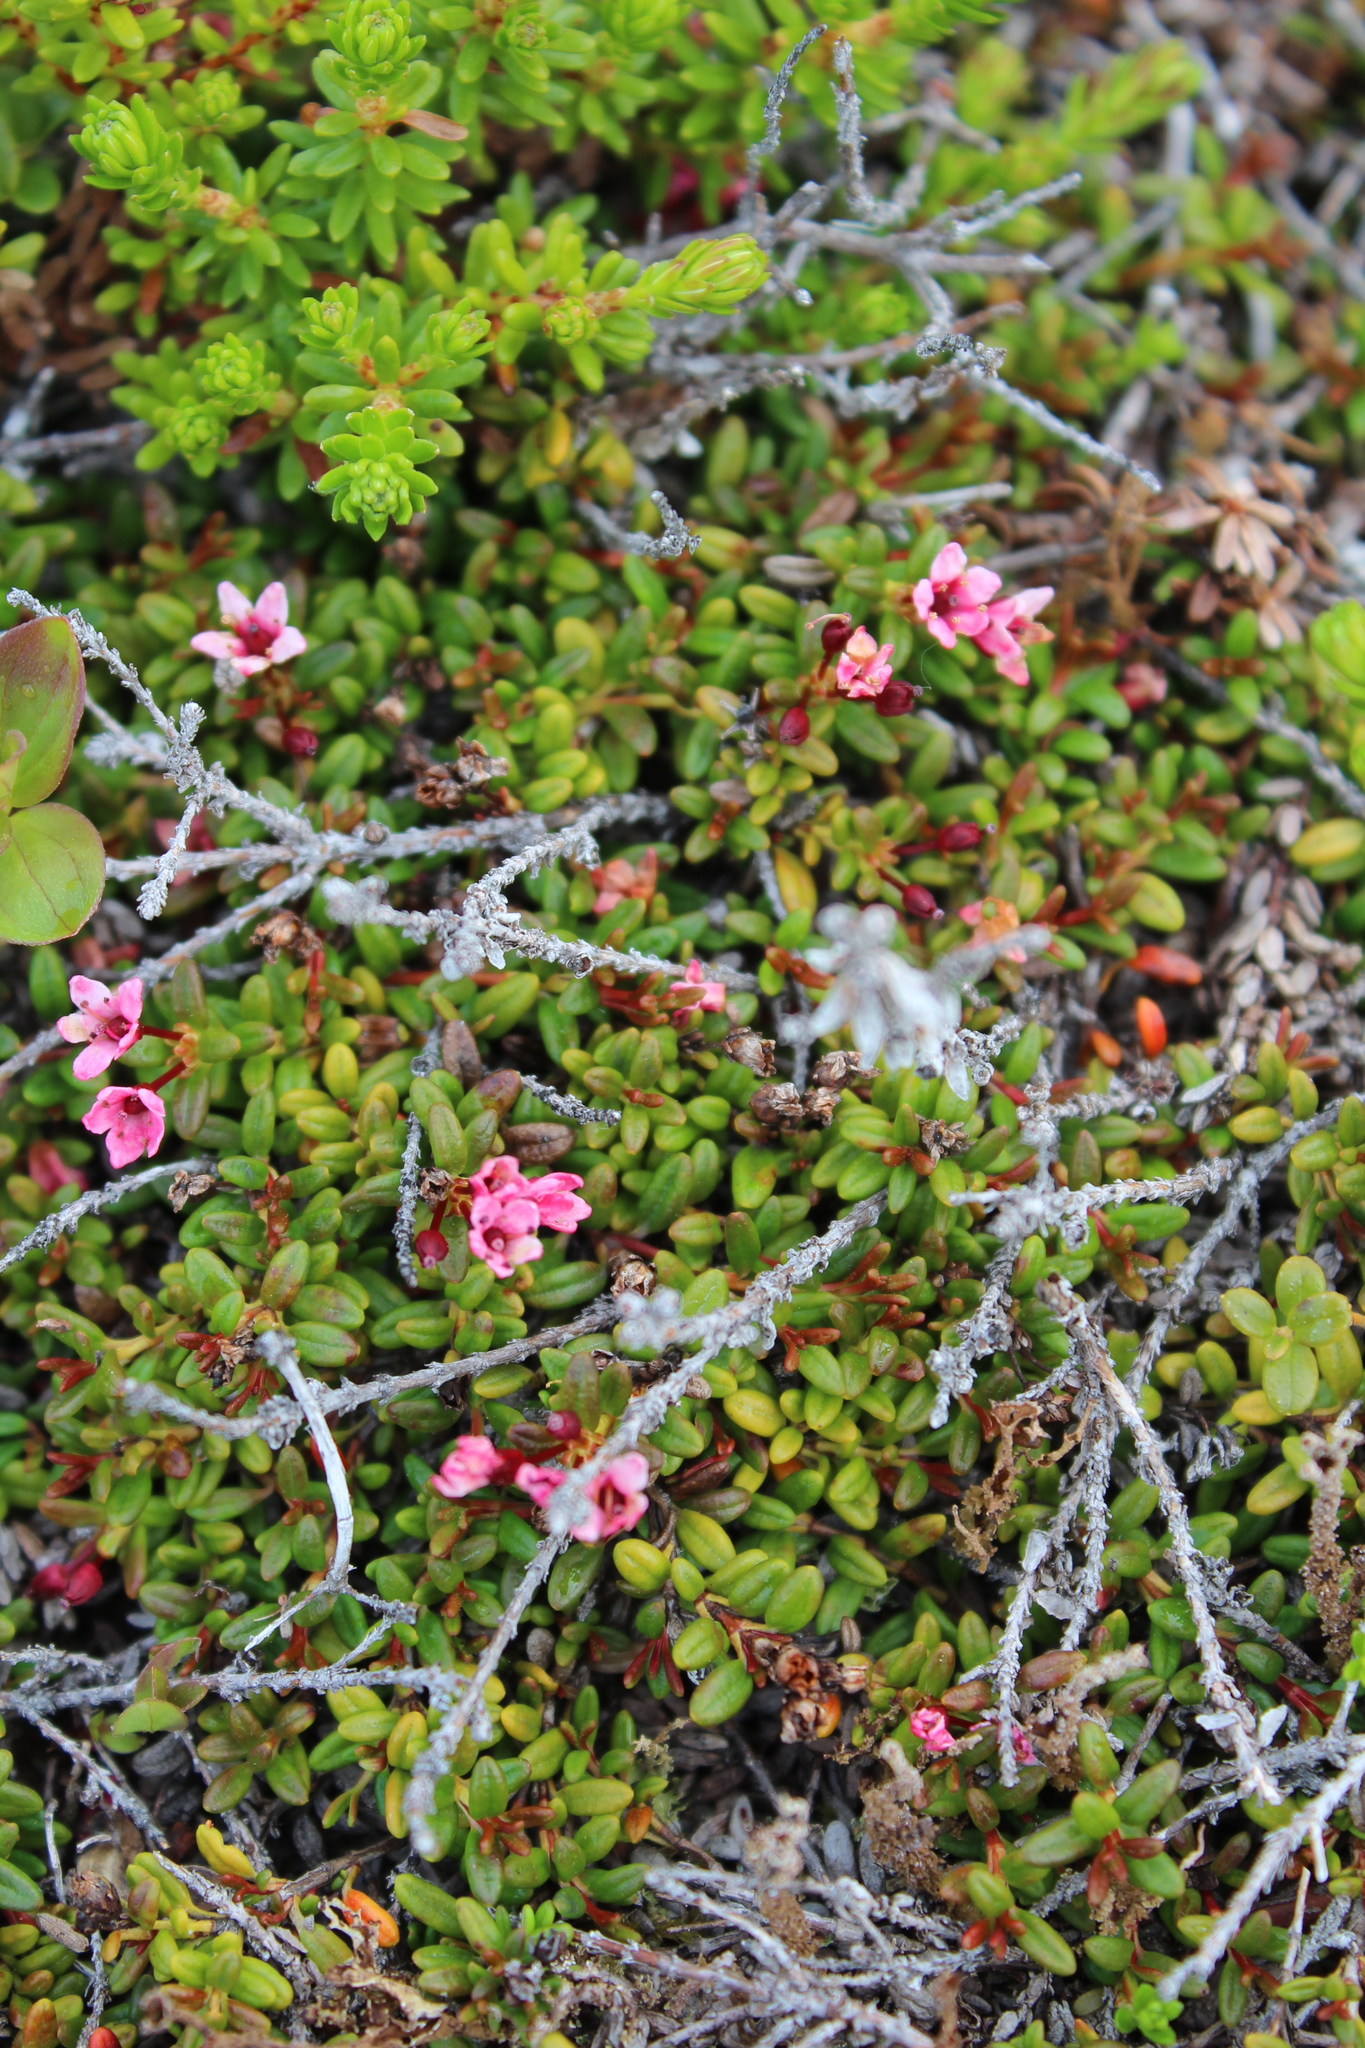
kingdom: Plantae
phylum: Tracheophyta
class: Magnoliopsida
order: Ericales
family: Ericaceae
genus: Kalmia
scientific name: Kalmia procumbens
